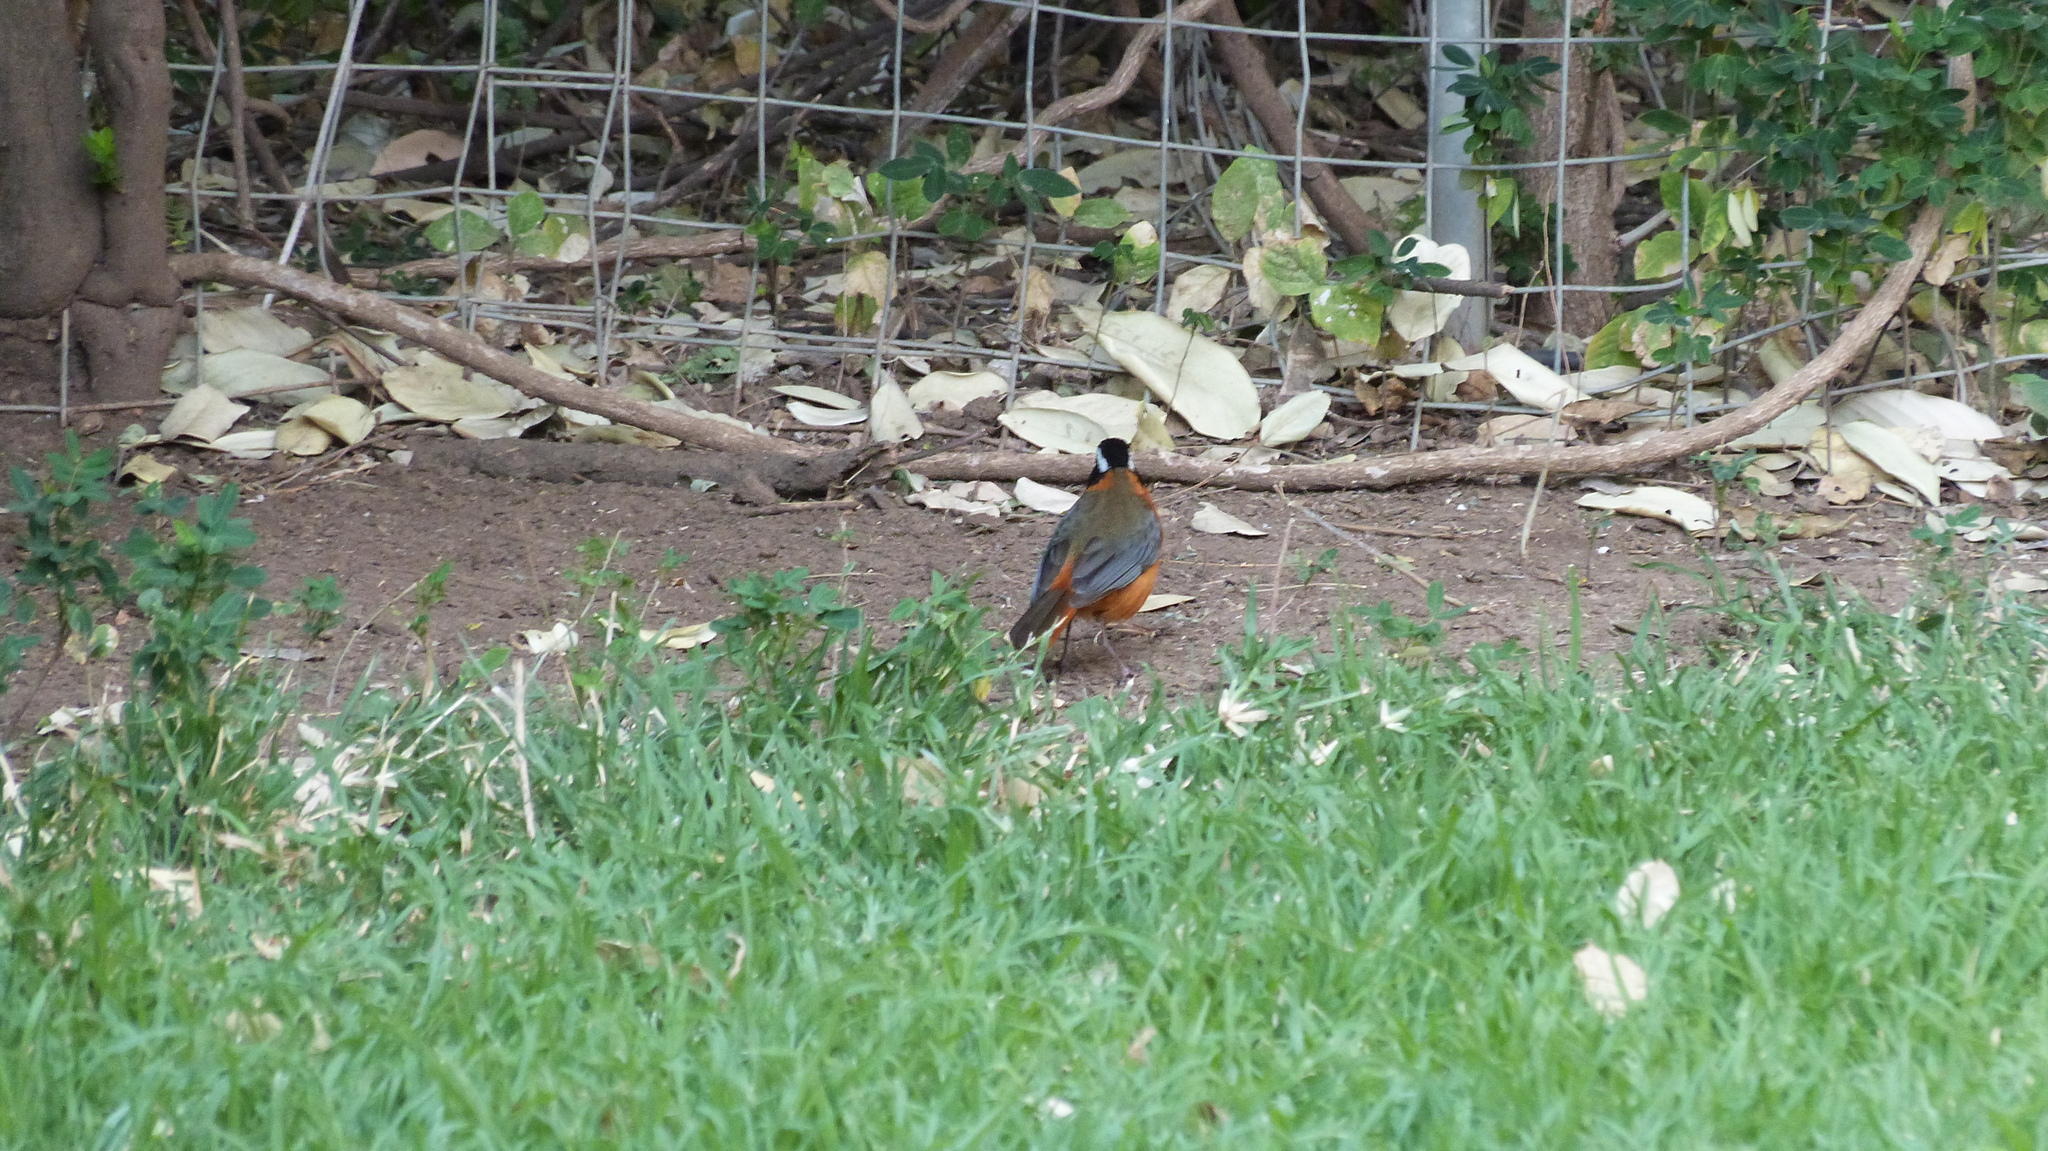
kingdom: Animalia
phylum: Chordata
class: Aves
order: Passeriformes
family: Muscicapidae
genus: Cossypha
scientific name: Cossypha heuglini
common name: White-browed robin-chat
